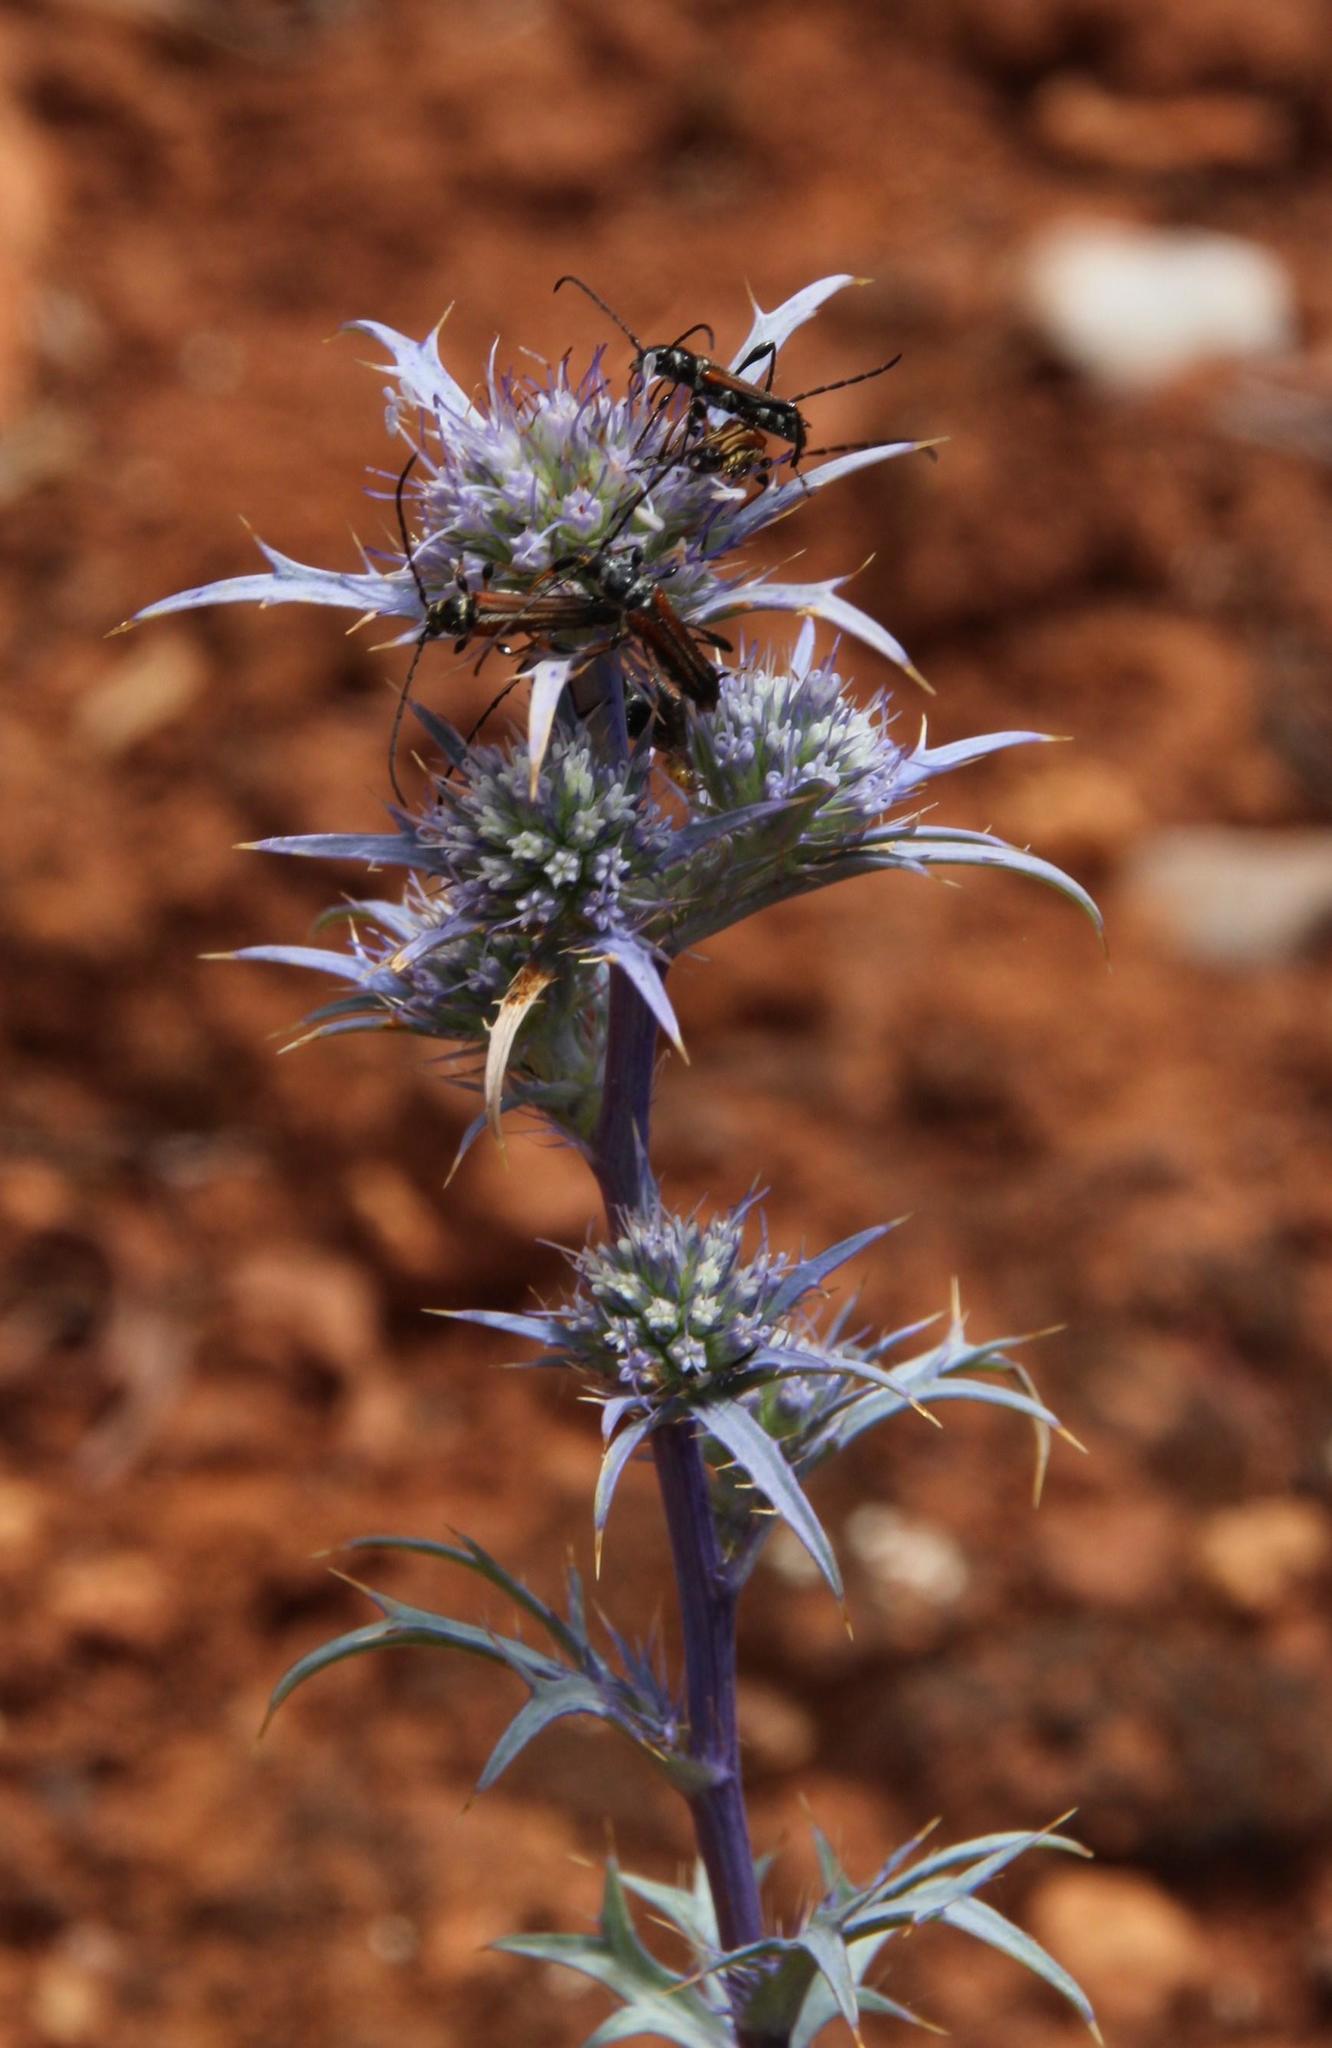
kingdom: Animalia
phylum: Arthropoda
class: Insecta
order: Coleoptera
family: Cerambycidae
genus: Stenopterus
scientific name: Stenopterus ater
